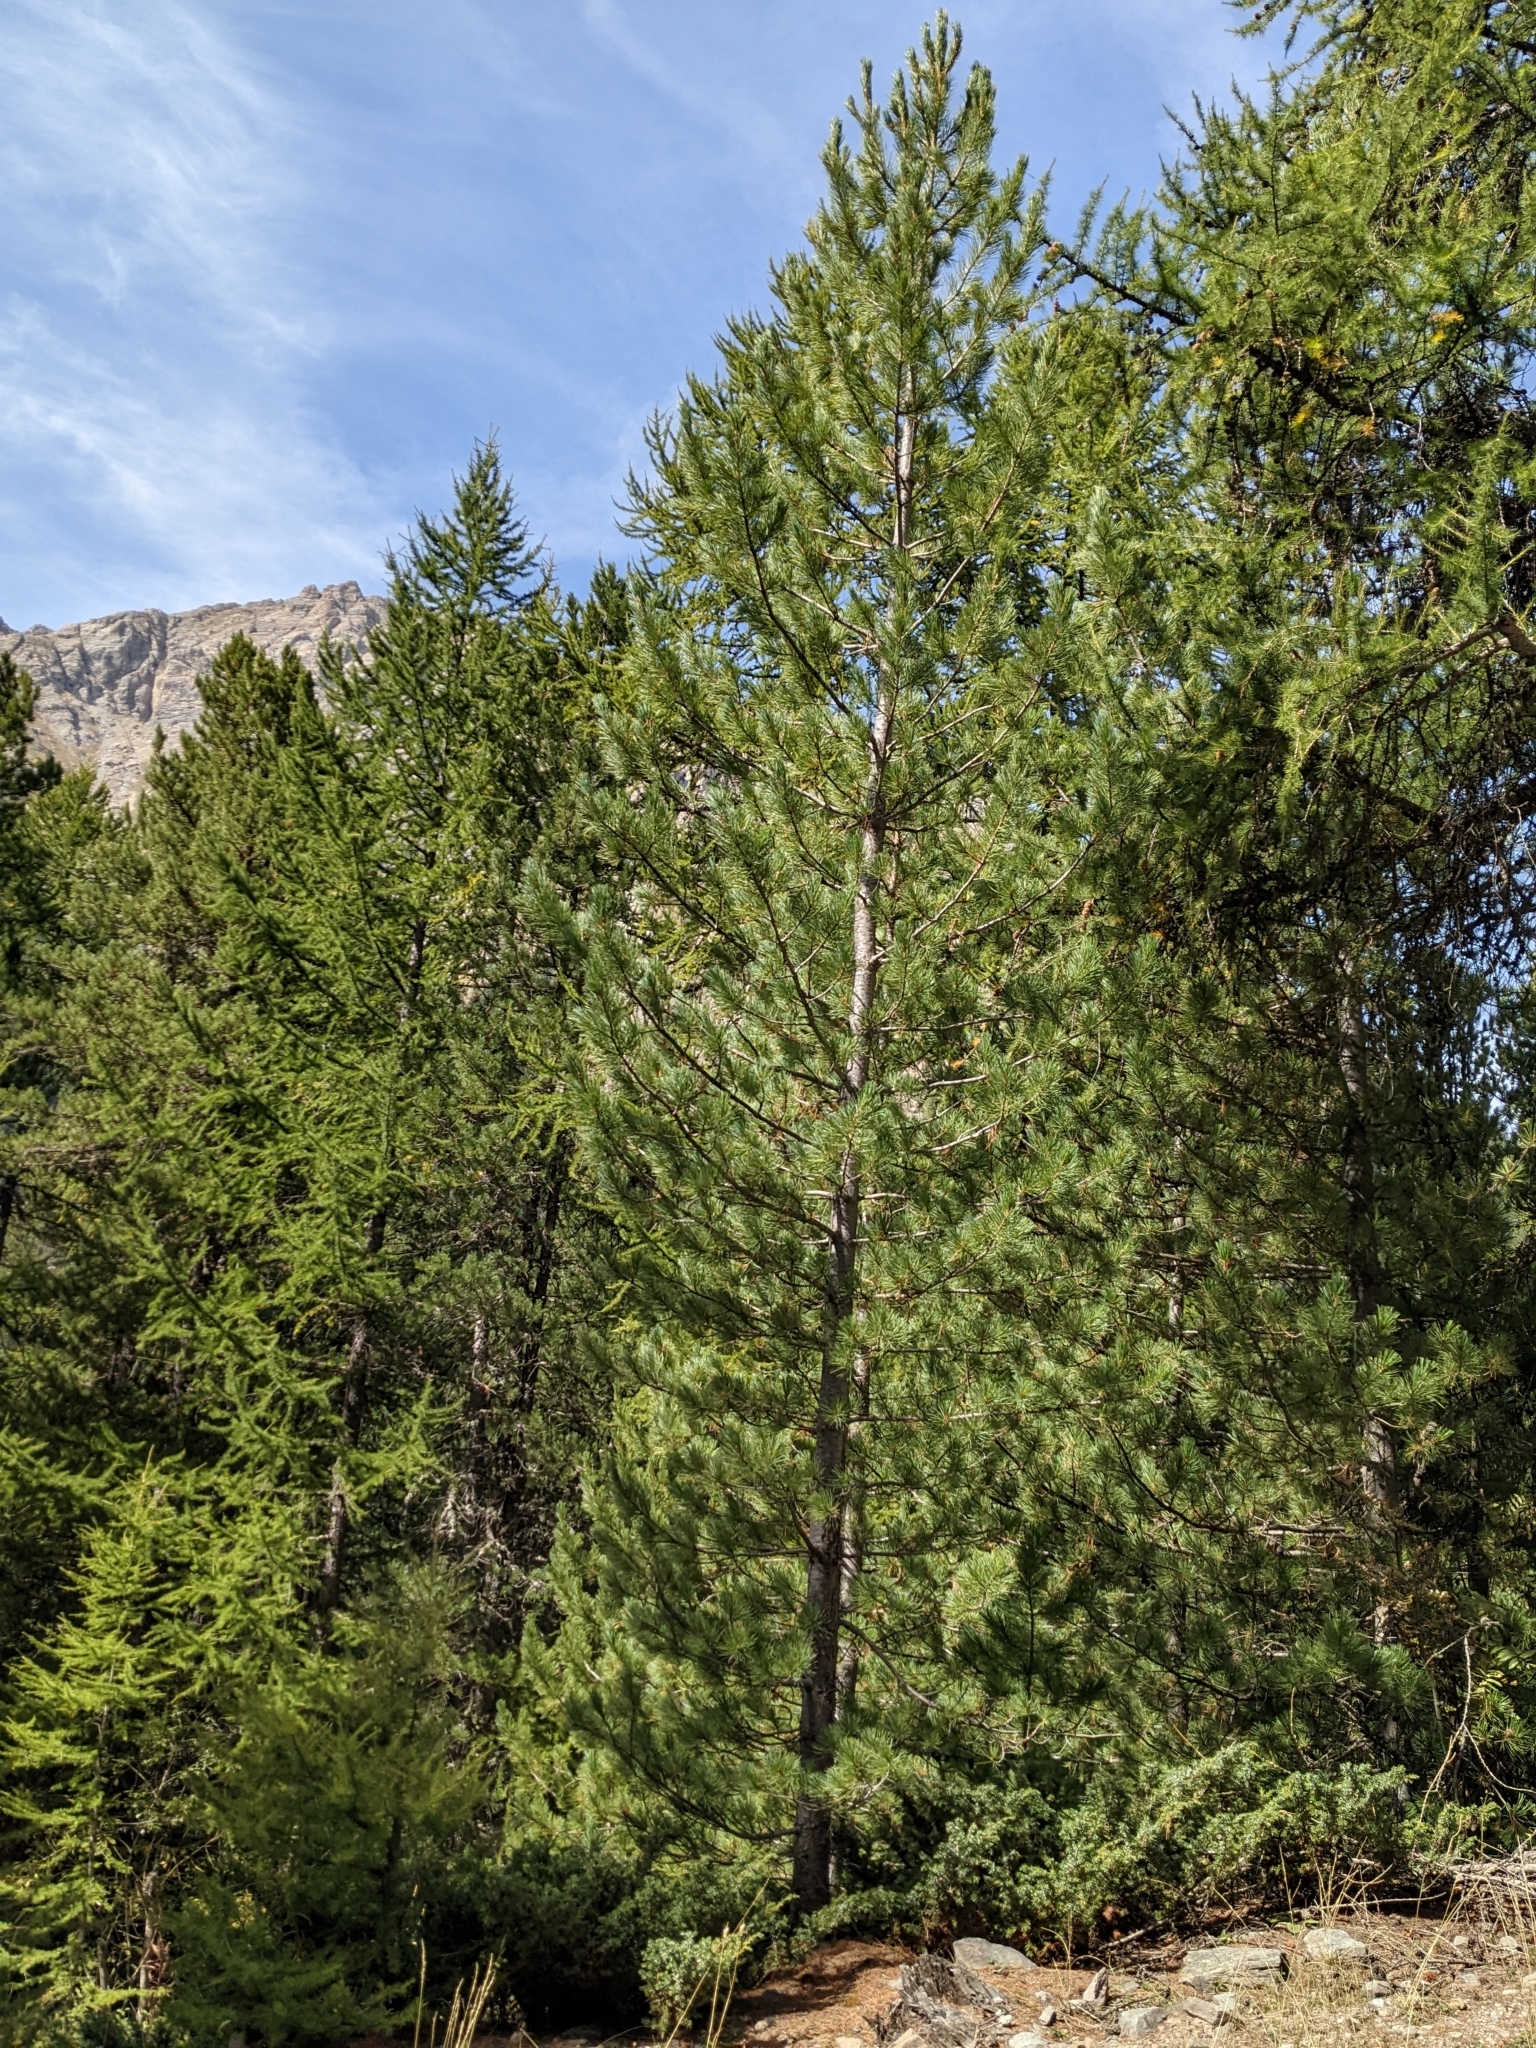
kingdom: Plantae
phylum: Tracheophyta
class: Pinopsida
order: Pinales
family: Pinaceae
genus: Pinus
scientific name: Pinus cembra
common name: Arolla pine
